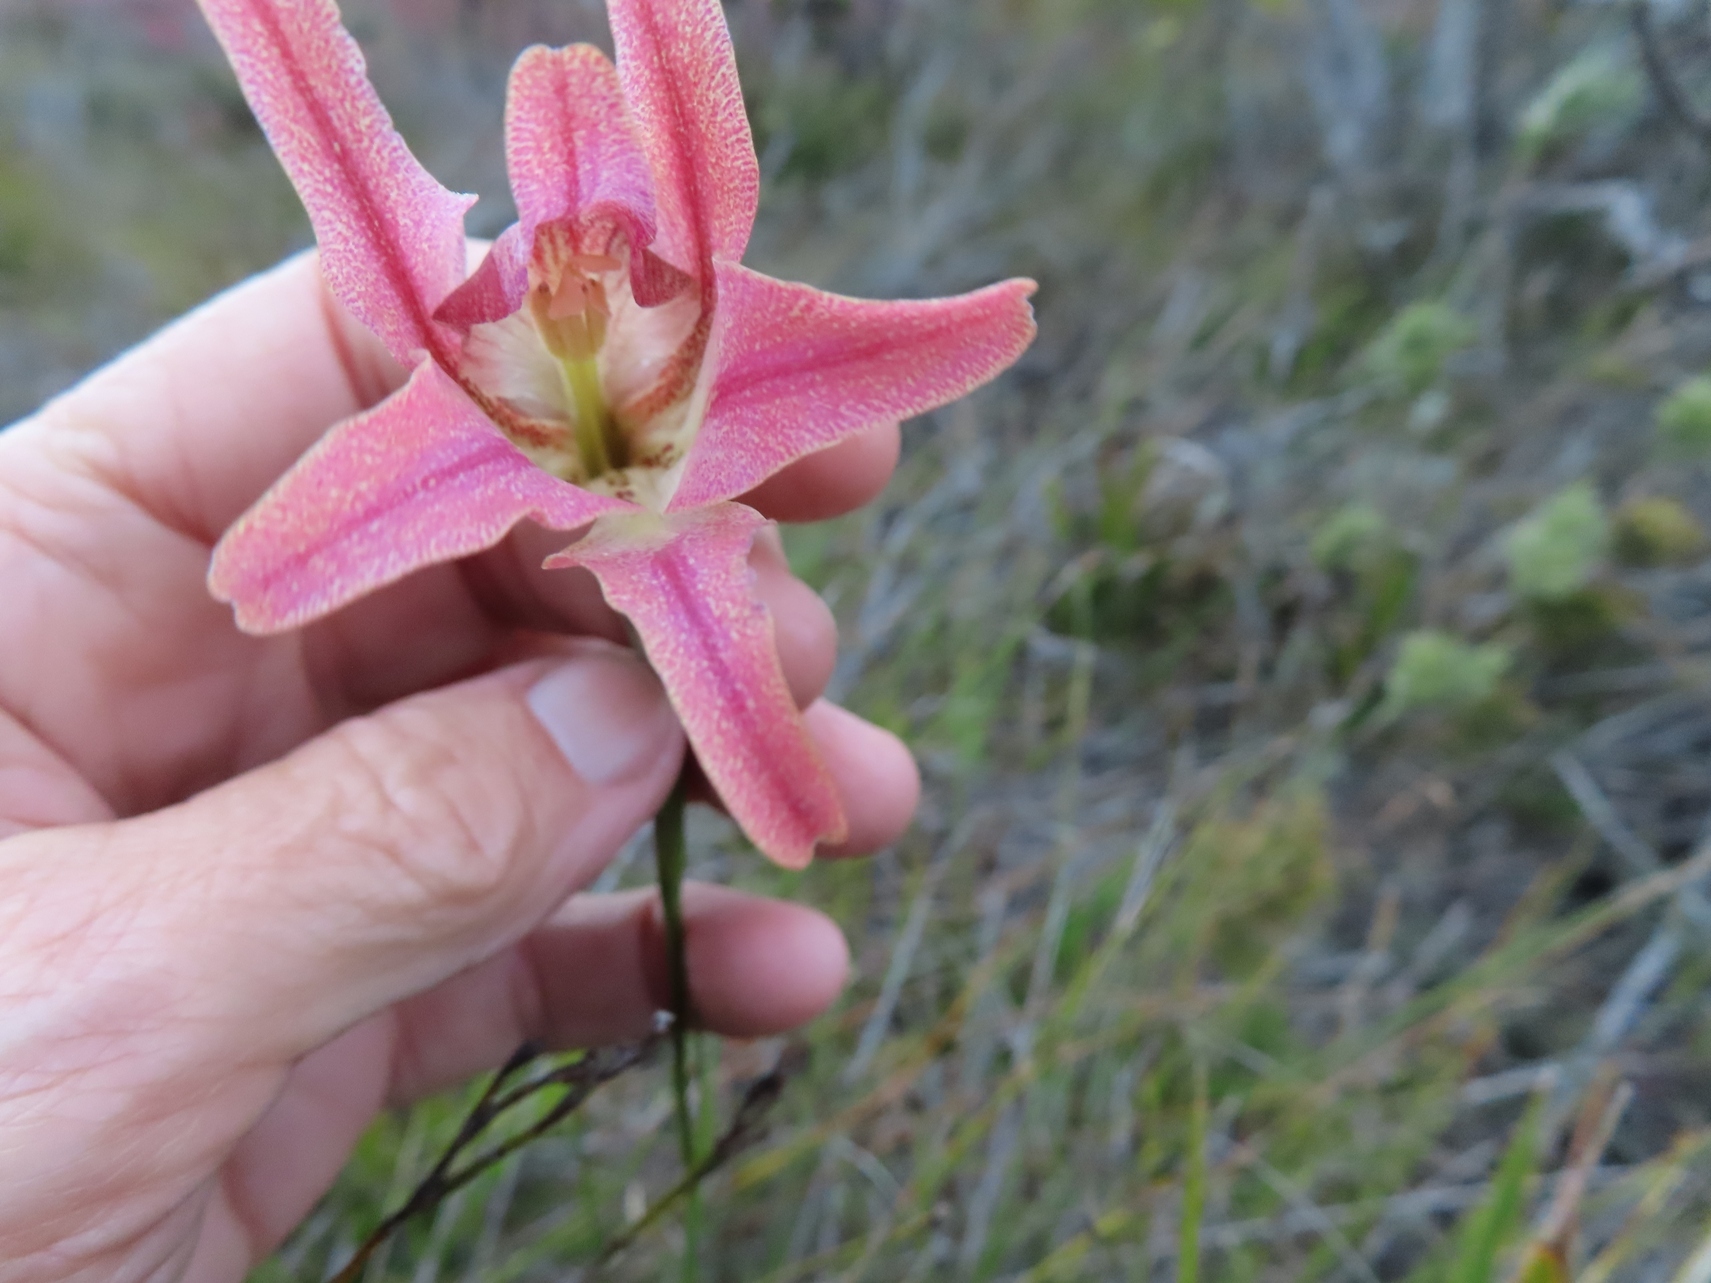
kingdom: Plantae
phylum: Tracheophyta
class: Liliopsida
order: Asparagales
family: Iridaceae
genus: Gladiolus
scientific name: Gladiolus liliaceus
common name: Large brown afrikaner
